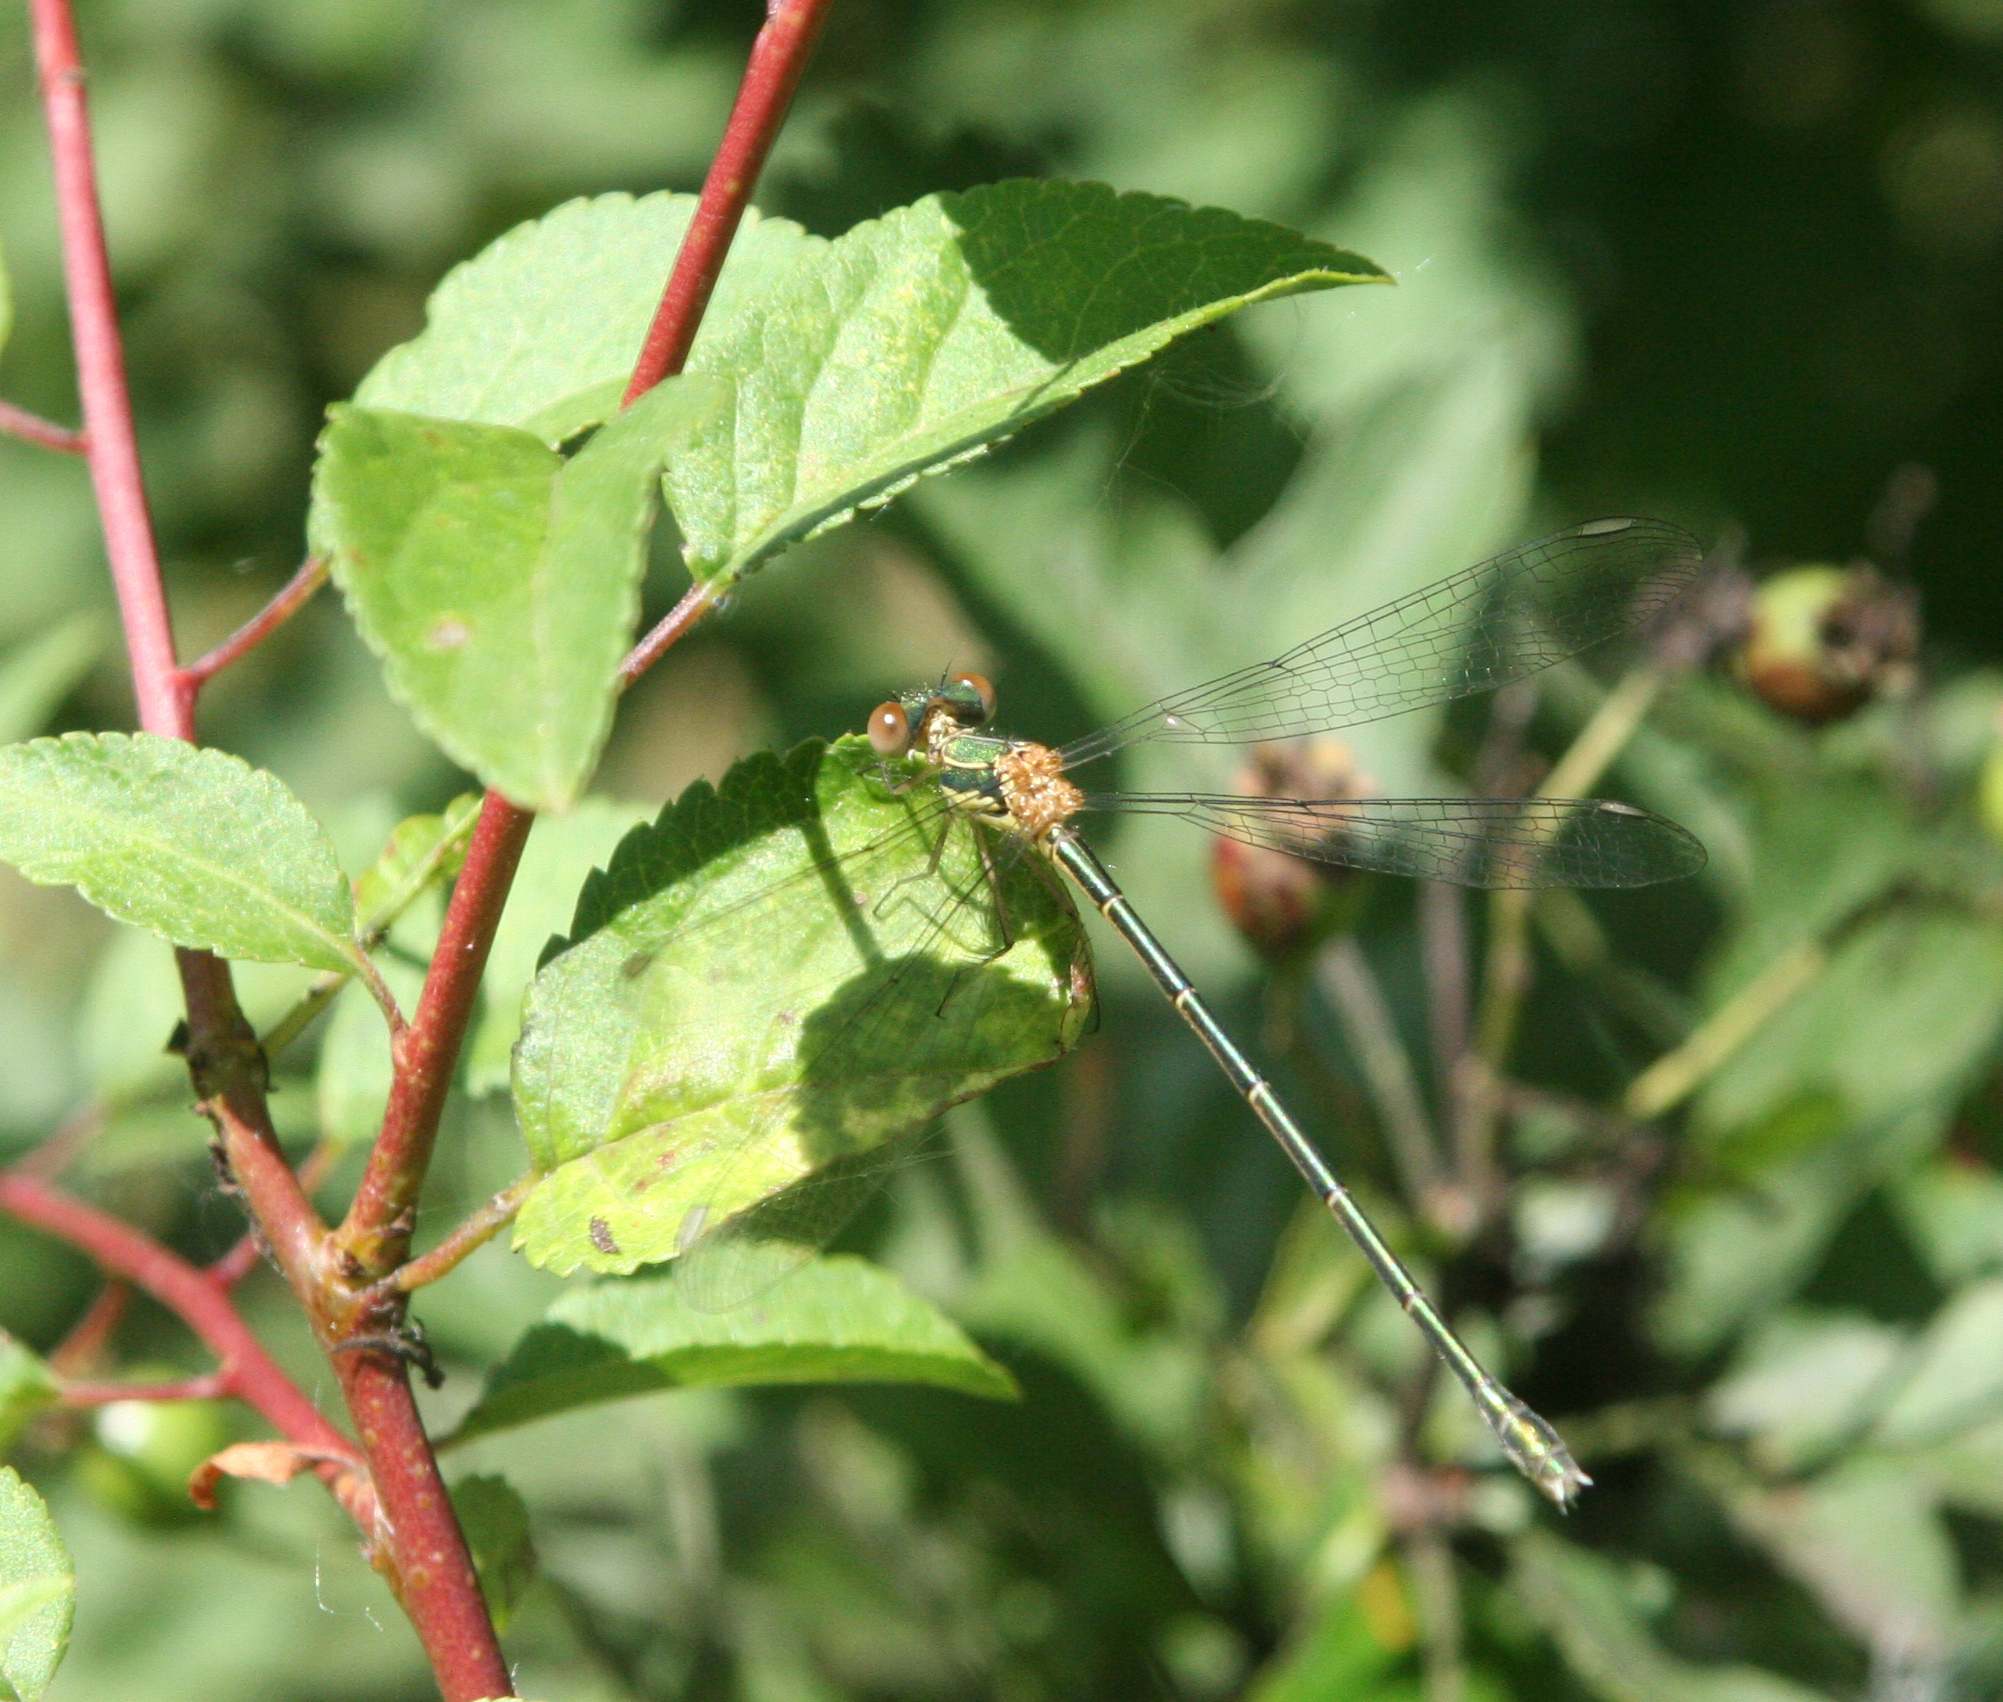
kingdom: Animalia
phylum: Arthropoda
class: Insecta
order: Odonata
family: Lestidae
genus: Chalcolestes
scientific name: Chalcolestes parvidens
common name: Eastern willow spreadwing
